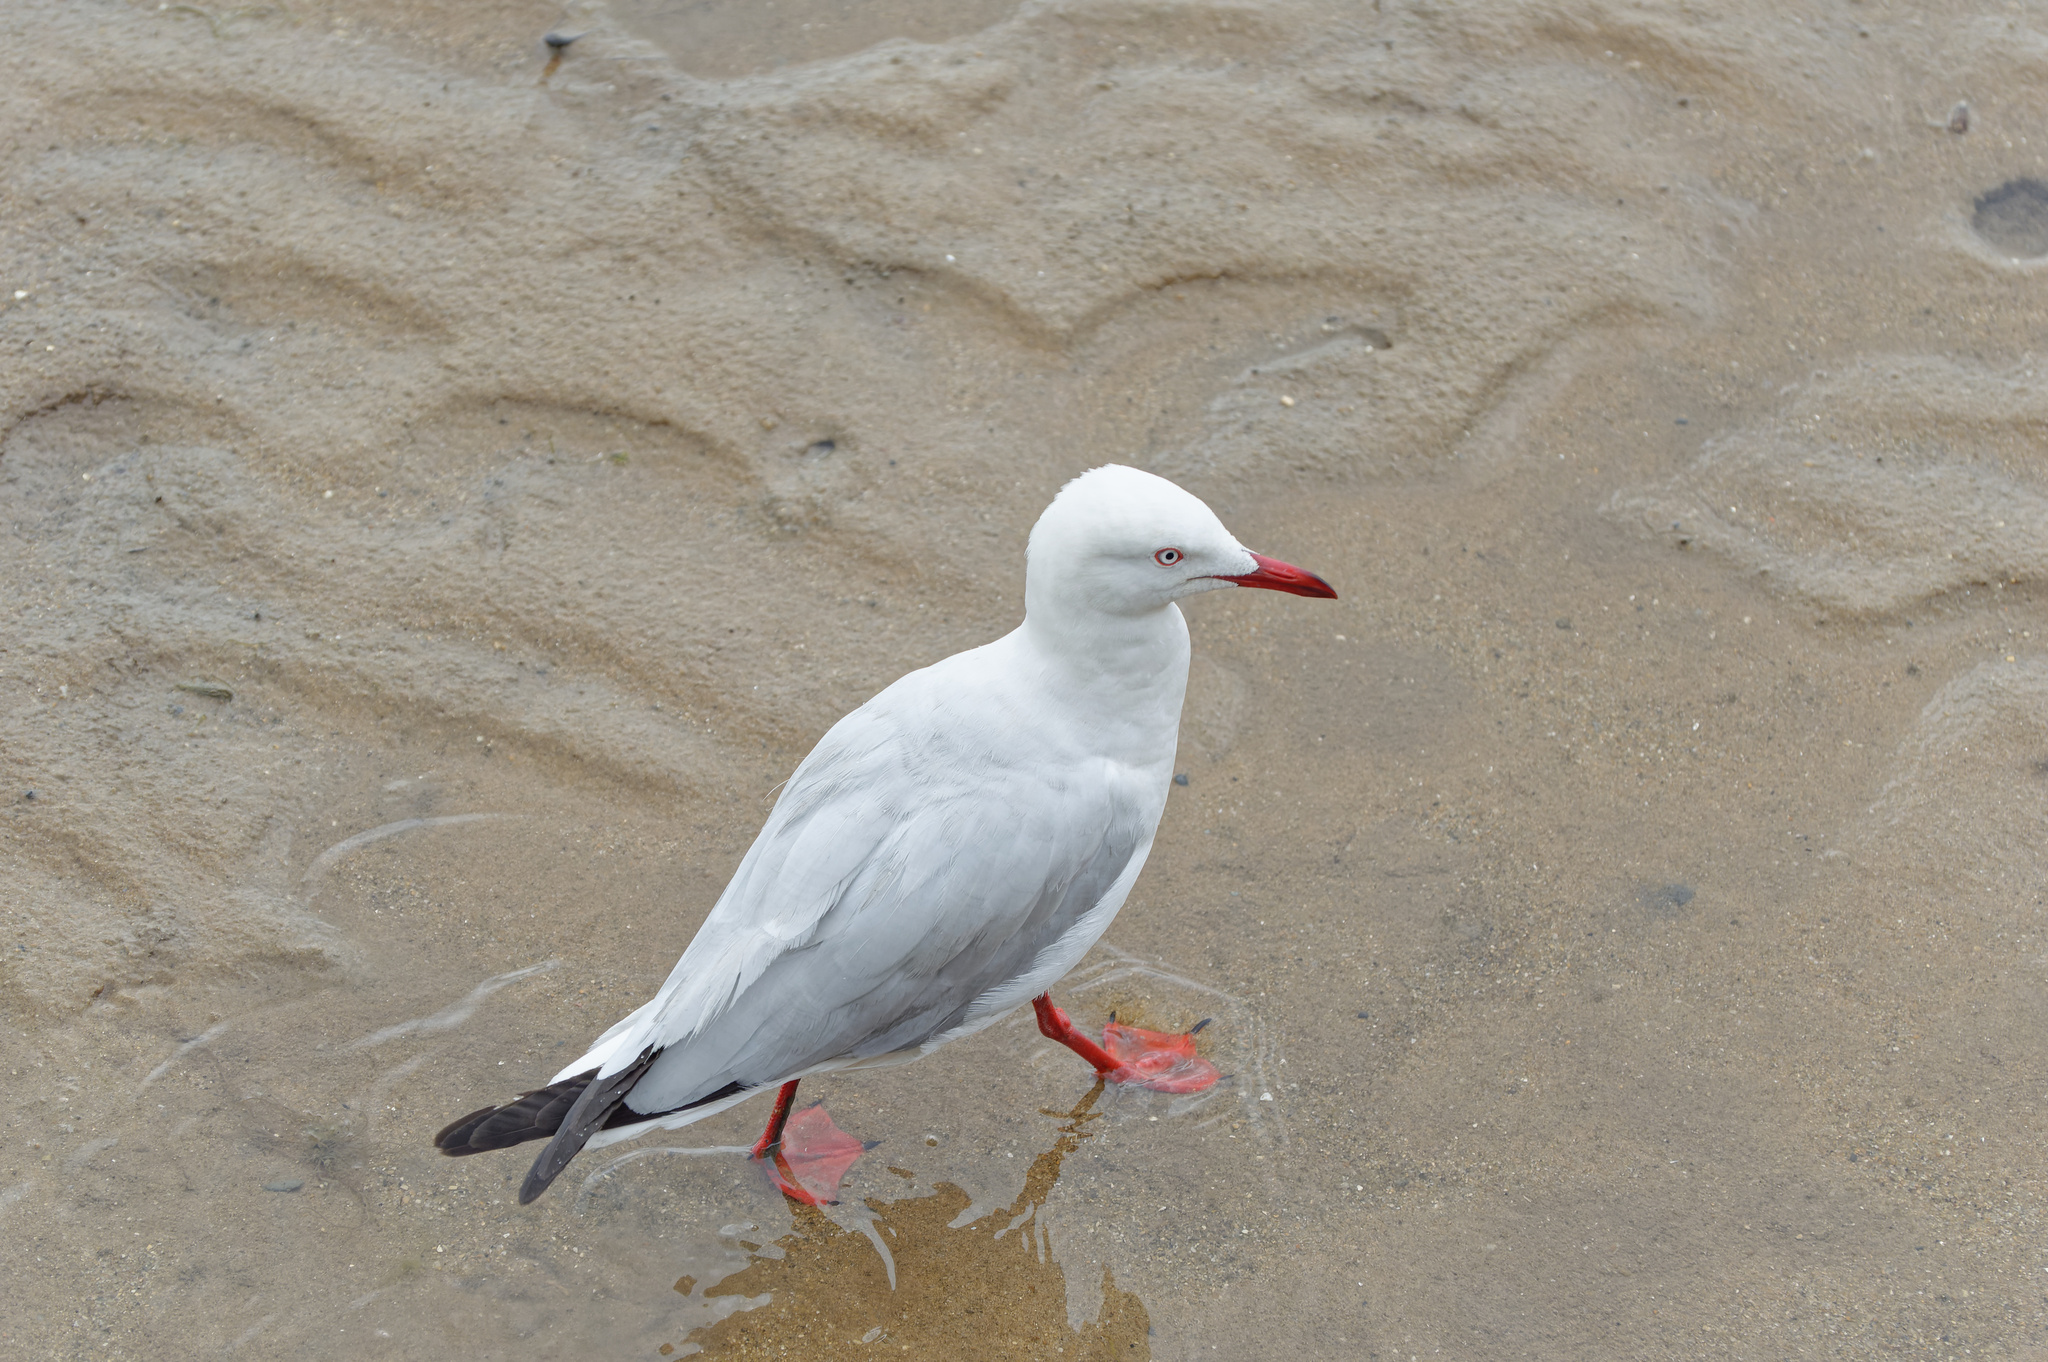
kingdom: Animalia
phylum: Chordata
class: Aves
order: Charadriiformes
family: Laridae
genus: Chroicocephalus
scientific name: Chroicocephalus novaehollandiae
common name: Silver gull
